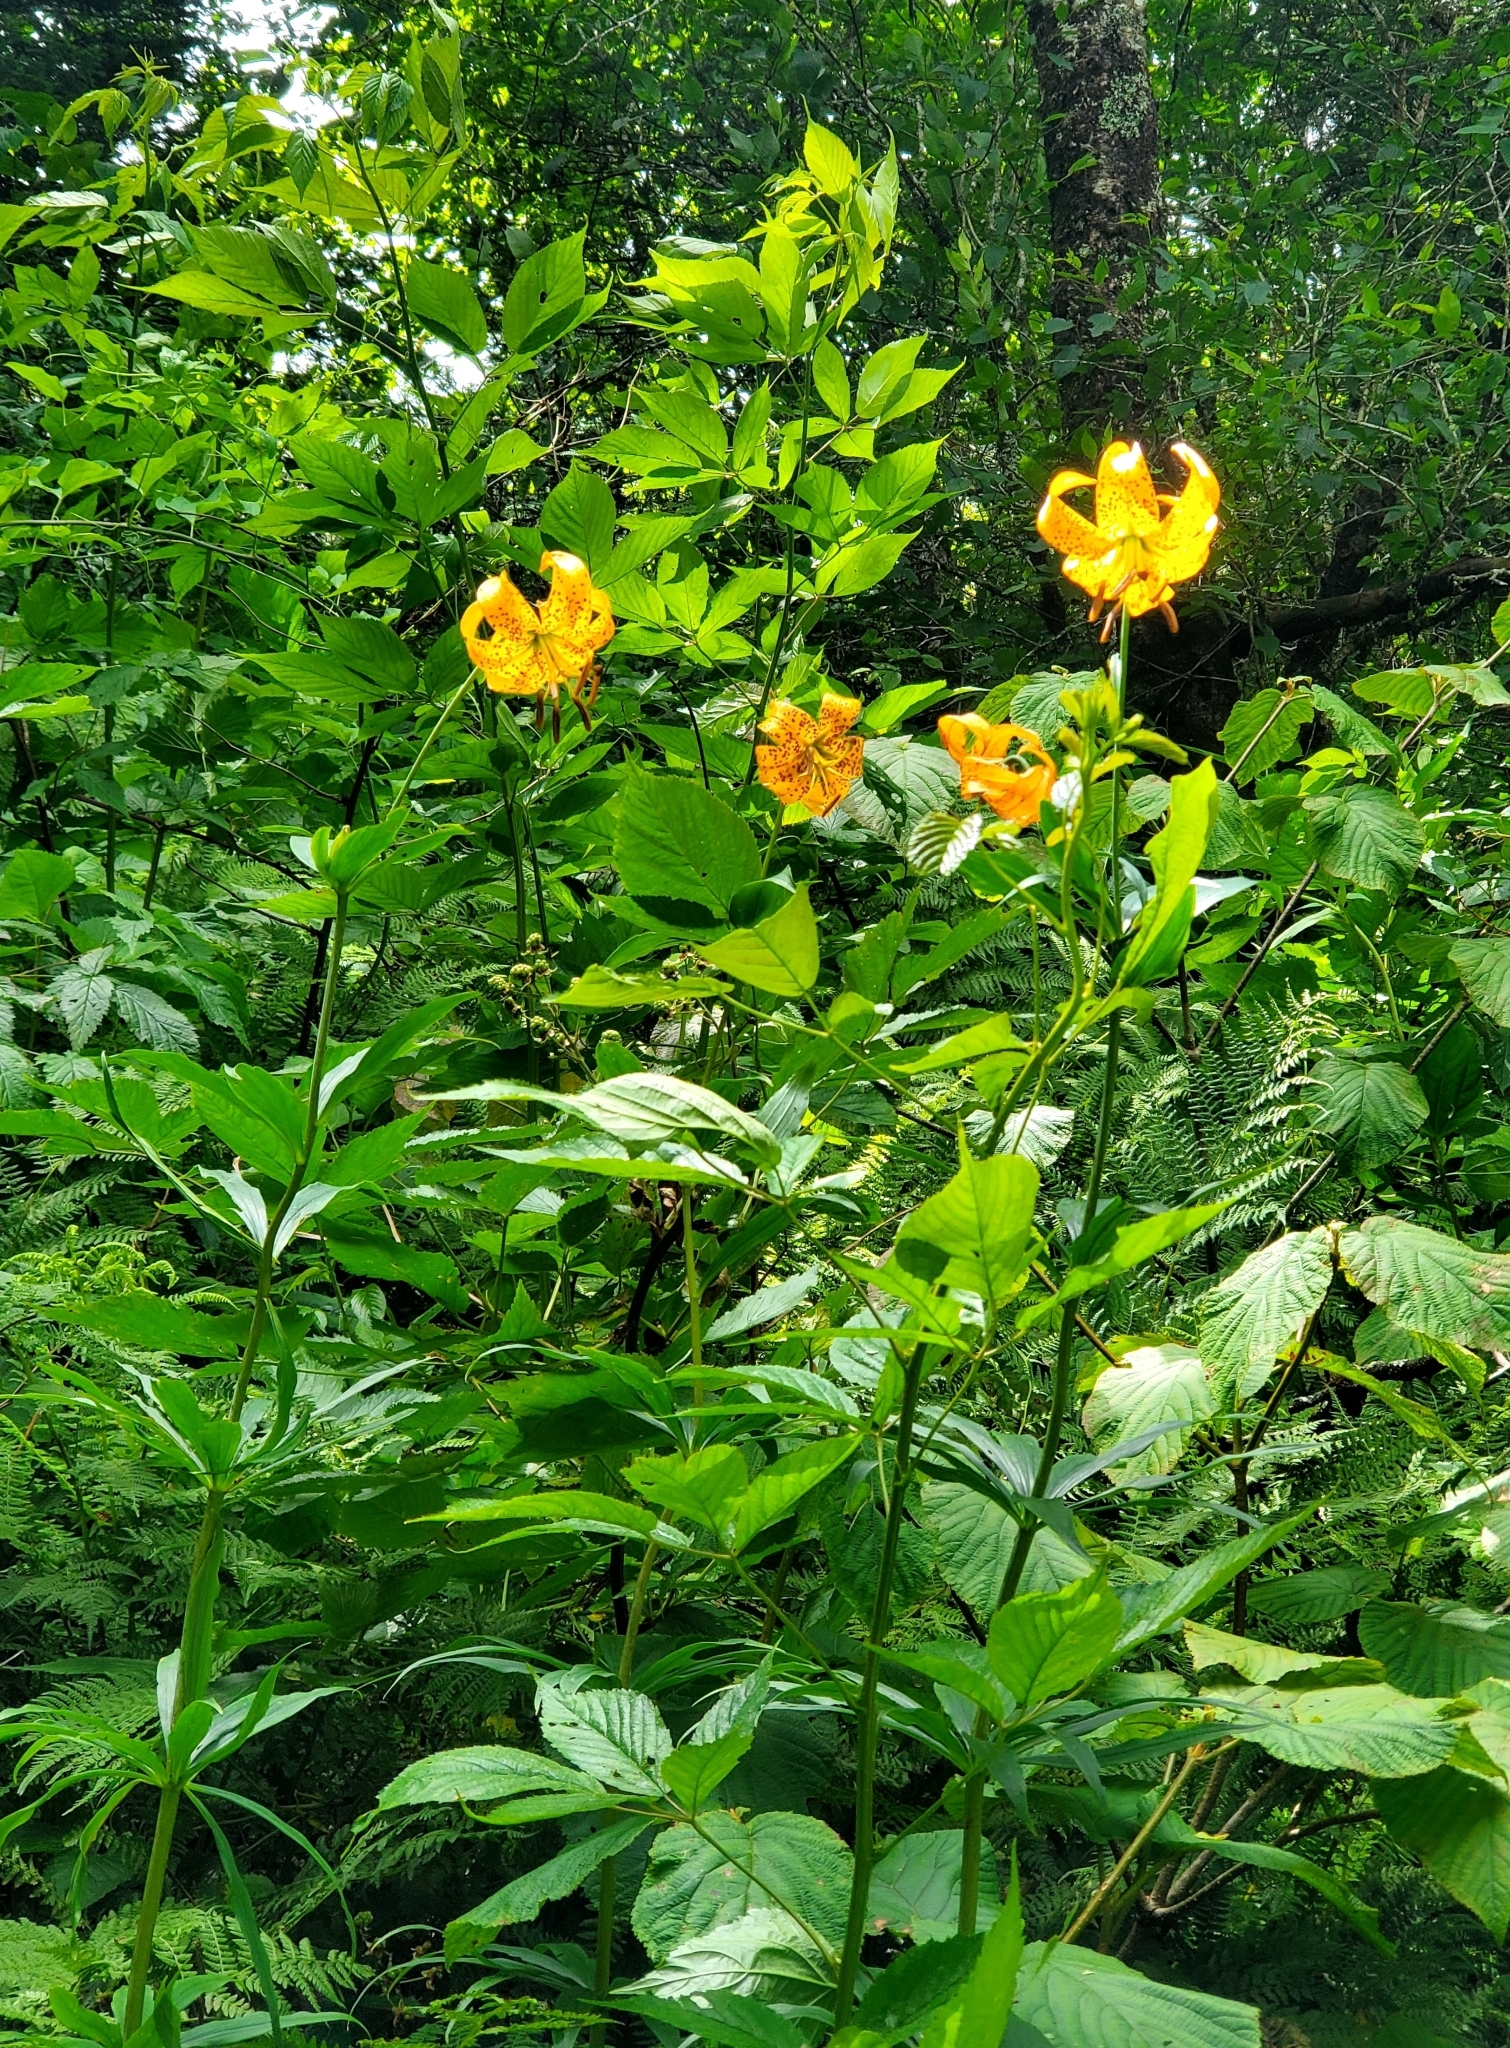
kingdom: Plantae
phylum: Tracheophyta
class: Liliopsida
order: Liliales
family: Liliaceae
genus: Lilium
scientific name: Lilium superbum
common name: American turk's-cap lily
